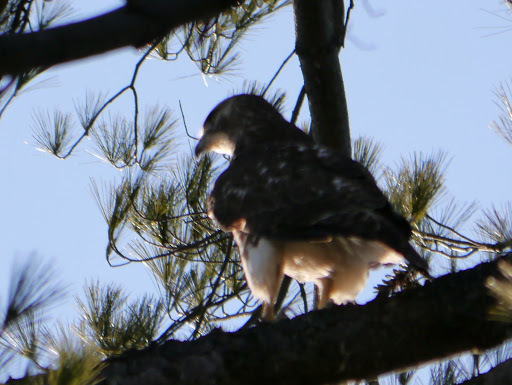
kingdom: Animalia
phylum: Chordata
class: Aves
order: Accipitriformes
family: Accipitridae
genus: Buteo
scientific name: Buteo jamaicensis
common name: Red-tailed hawk
